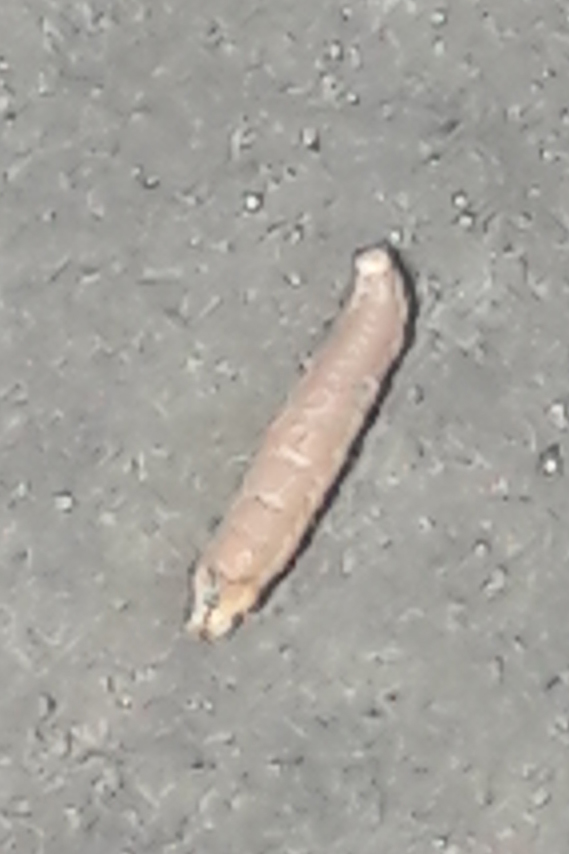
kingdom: Animalia
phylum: Arthropoda
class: Insecta
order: Lepidoptera
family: Sphingidae
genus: Mimas
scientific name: Mimas tiliae
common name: Lime hawk-moth
